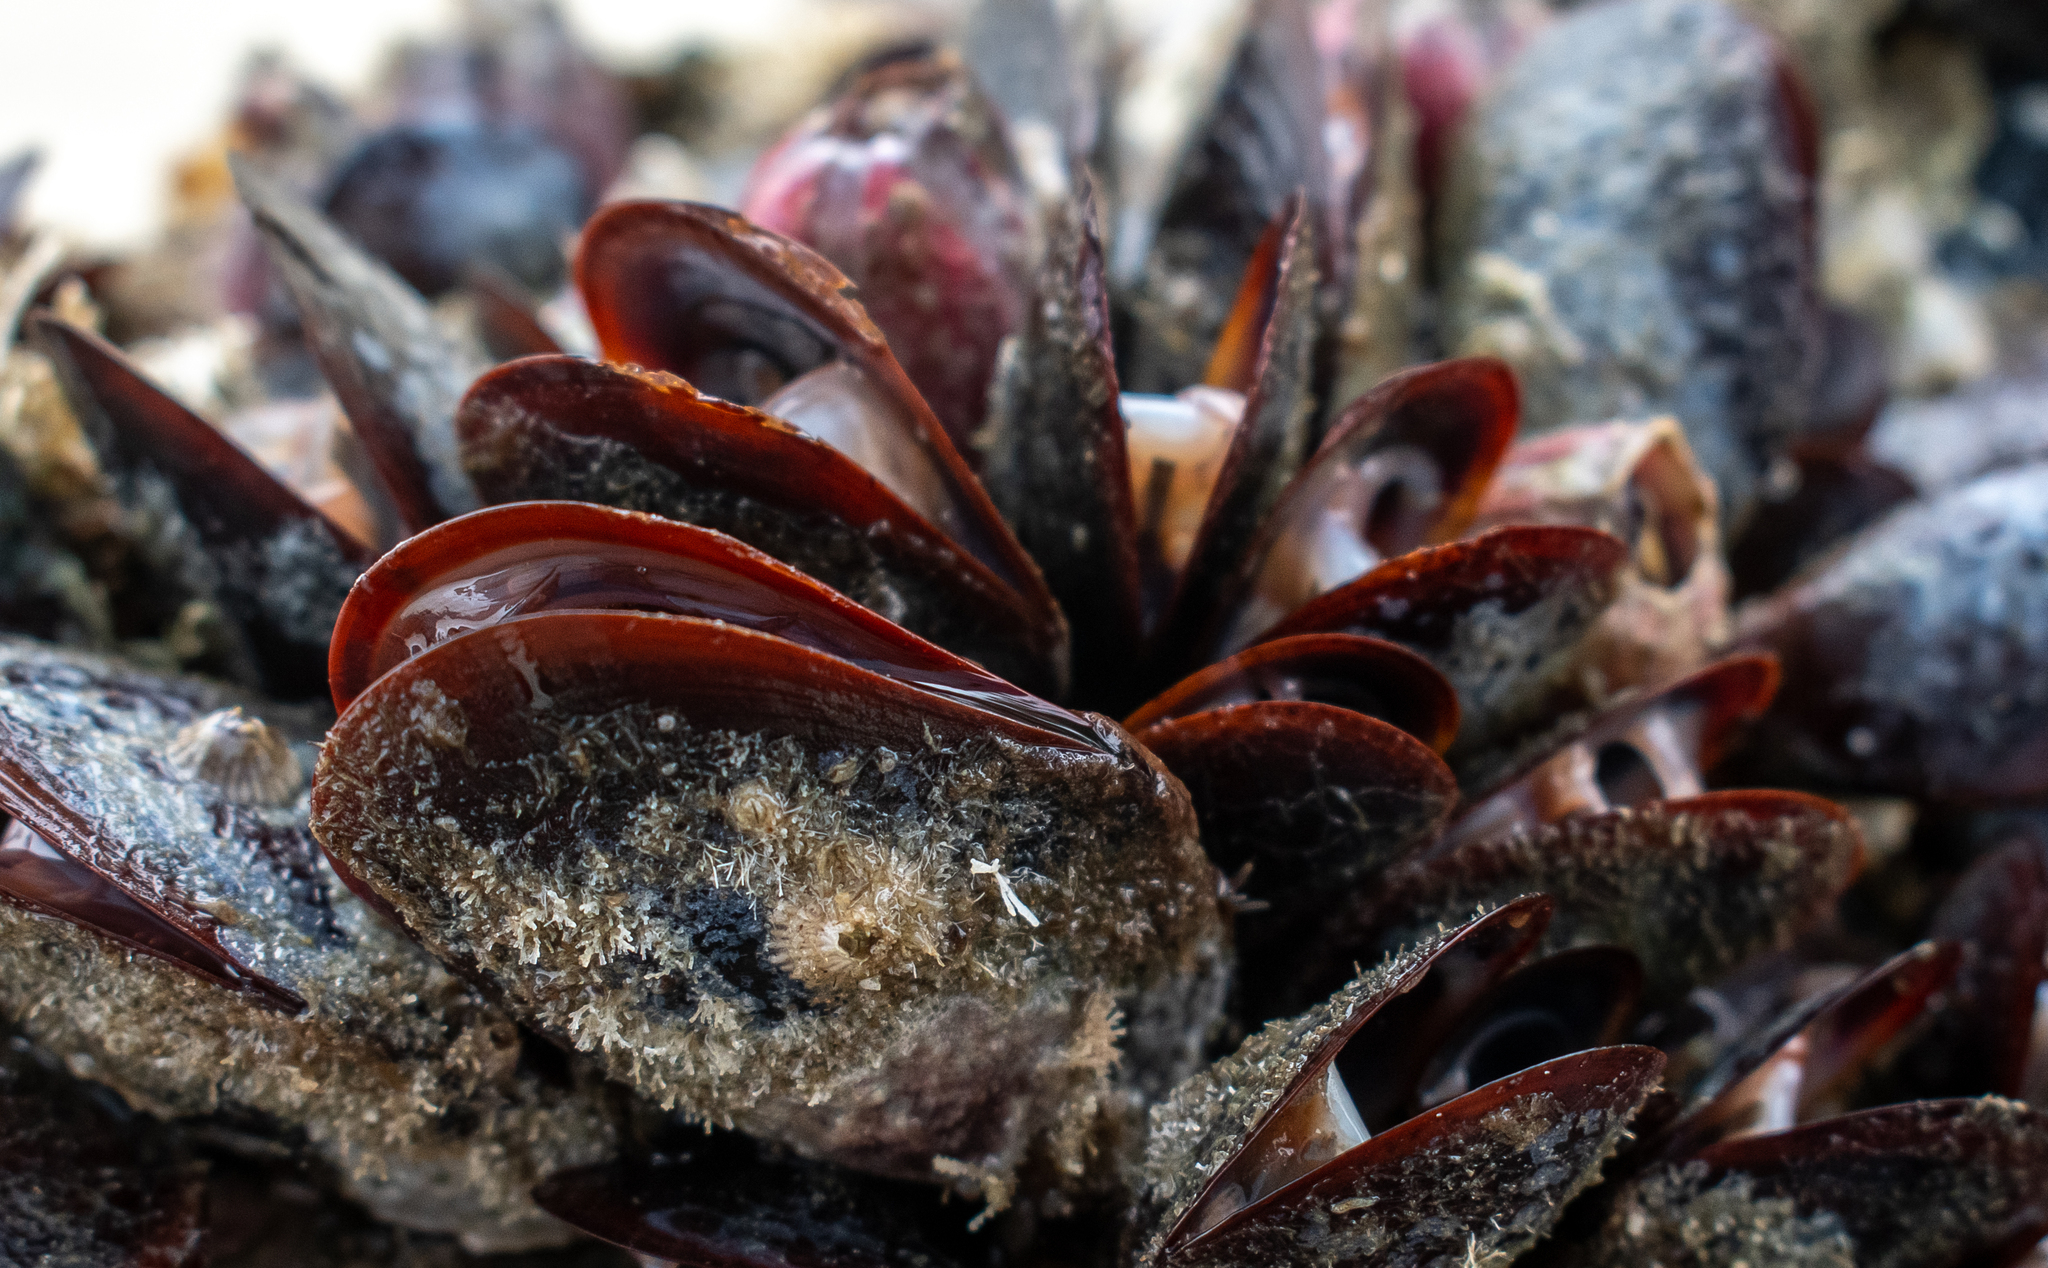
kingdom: Animalia
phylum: Mollusca
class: Bivalvia
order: Mytilida
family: Mytilidae
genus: Perna
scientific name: Perna perna
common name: Mexilhao mussel
